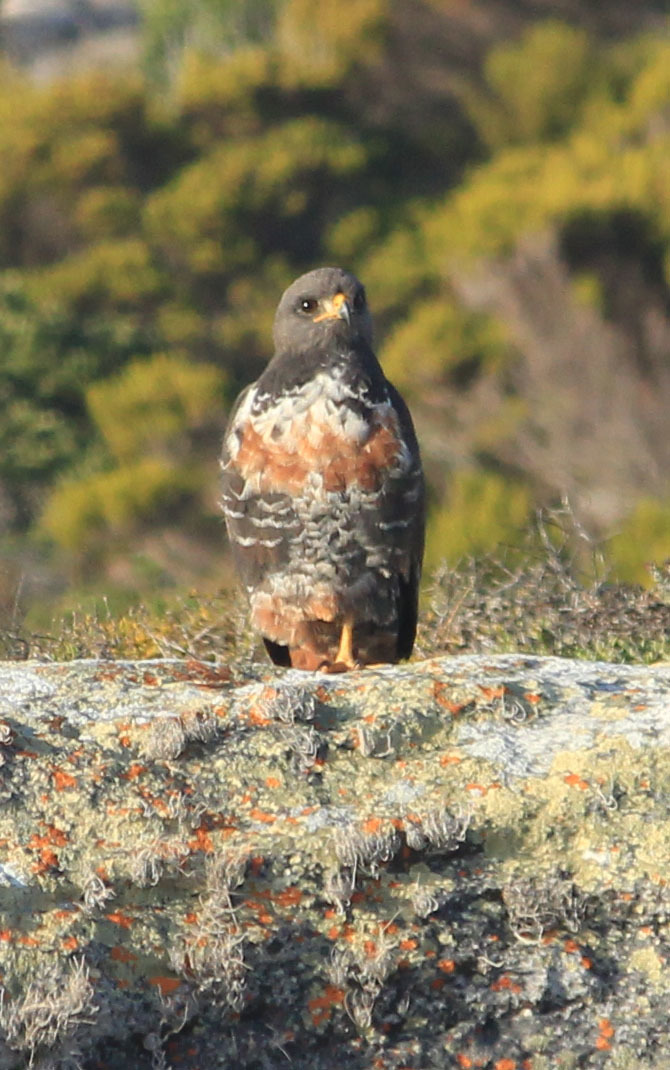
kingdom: Animalia
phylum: Chordata
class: Aves
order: Accipitriformes
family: Accipitridae
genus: Buteo
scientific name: Buteo rufofuscus
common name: Jackal buzzard
